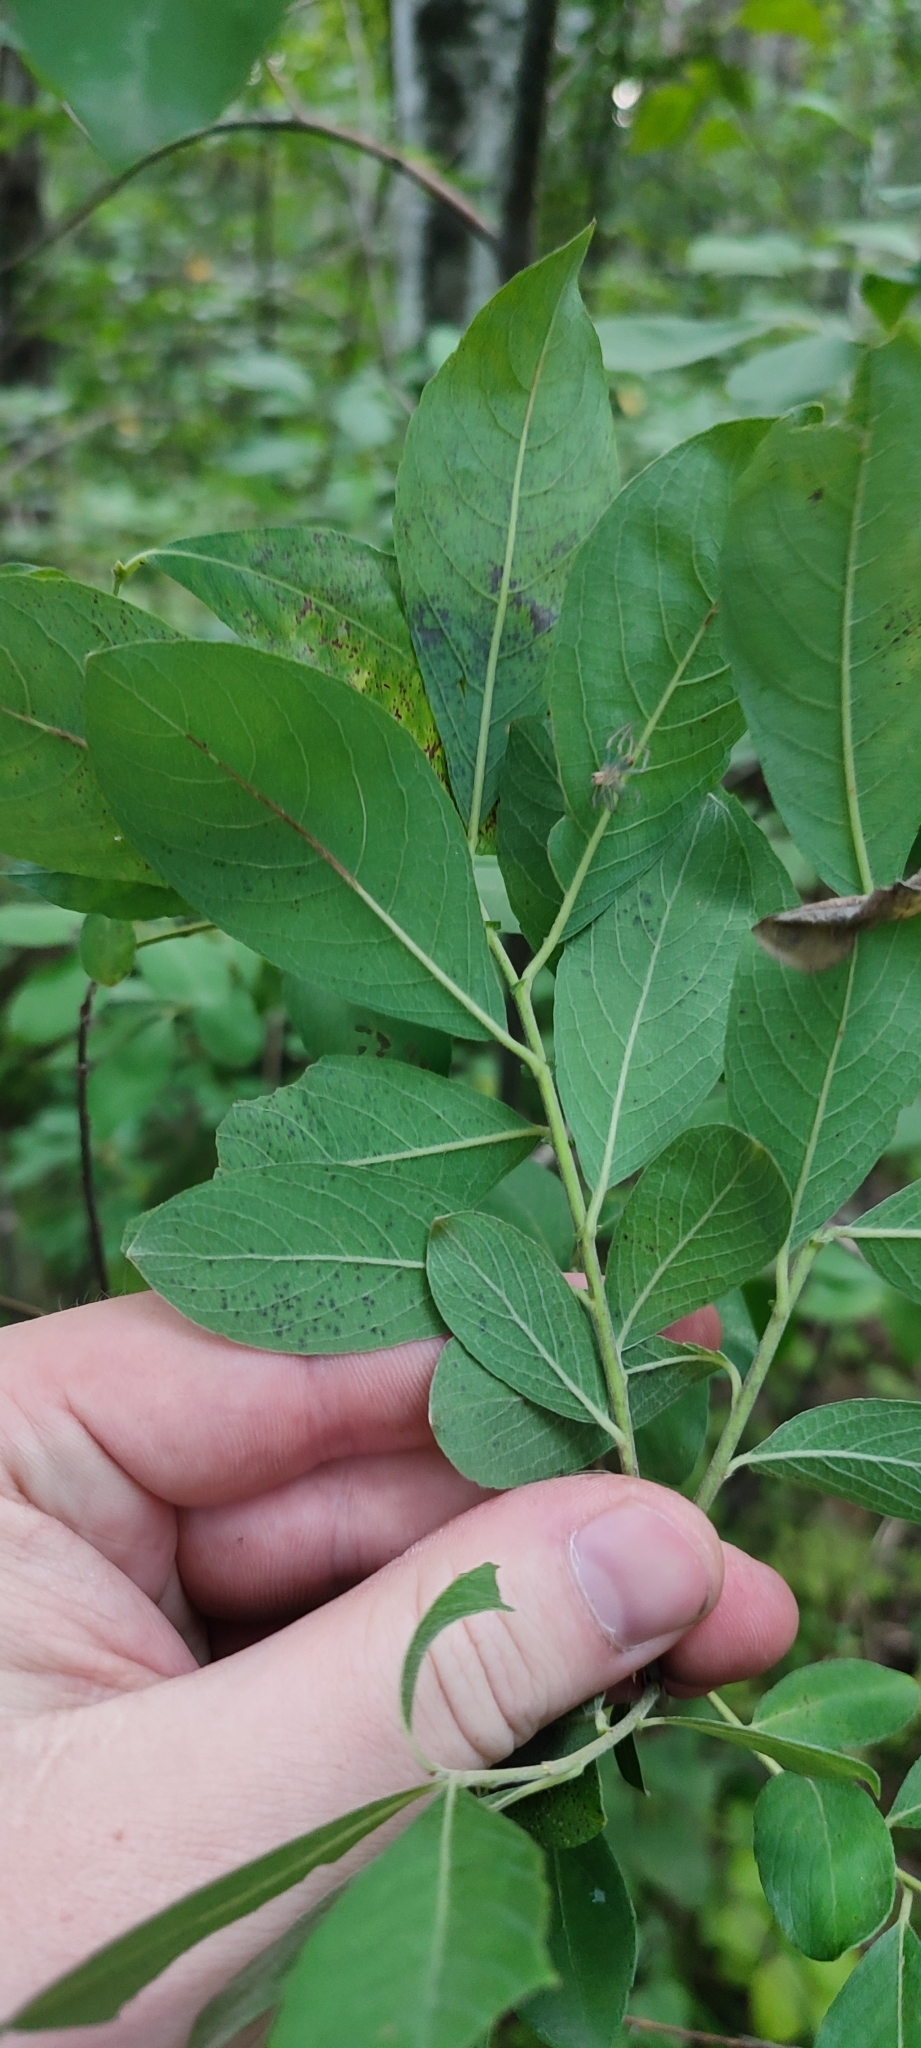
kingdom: Plantae
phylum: Tracheophyta
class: Magnoliopsida
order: Malpighiales
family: Salicaceae
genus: Salix
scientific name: Salix cinerea
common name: Common sallow
